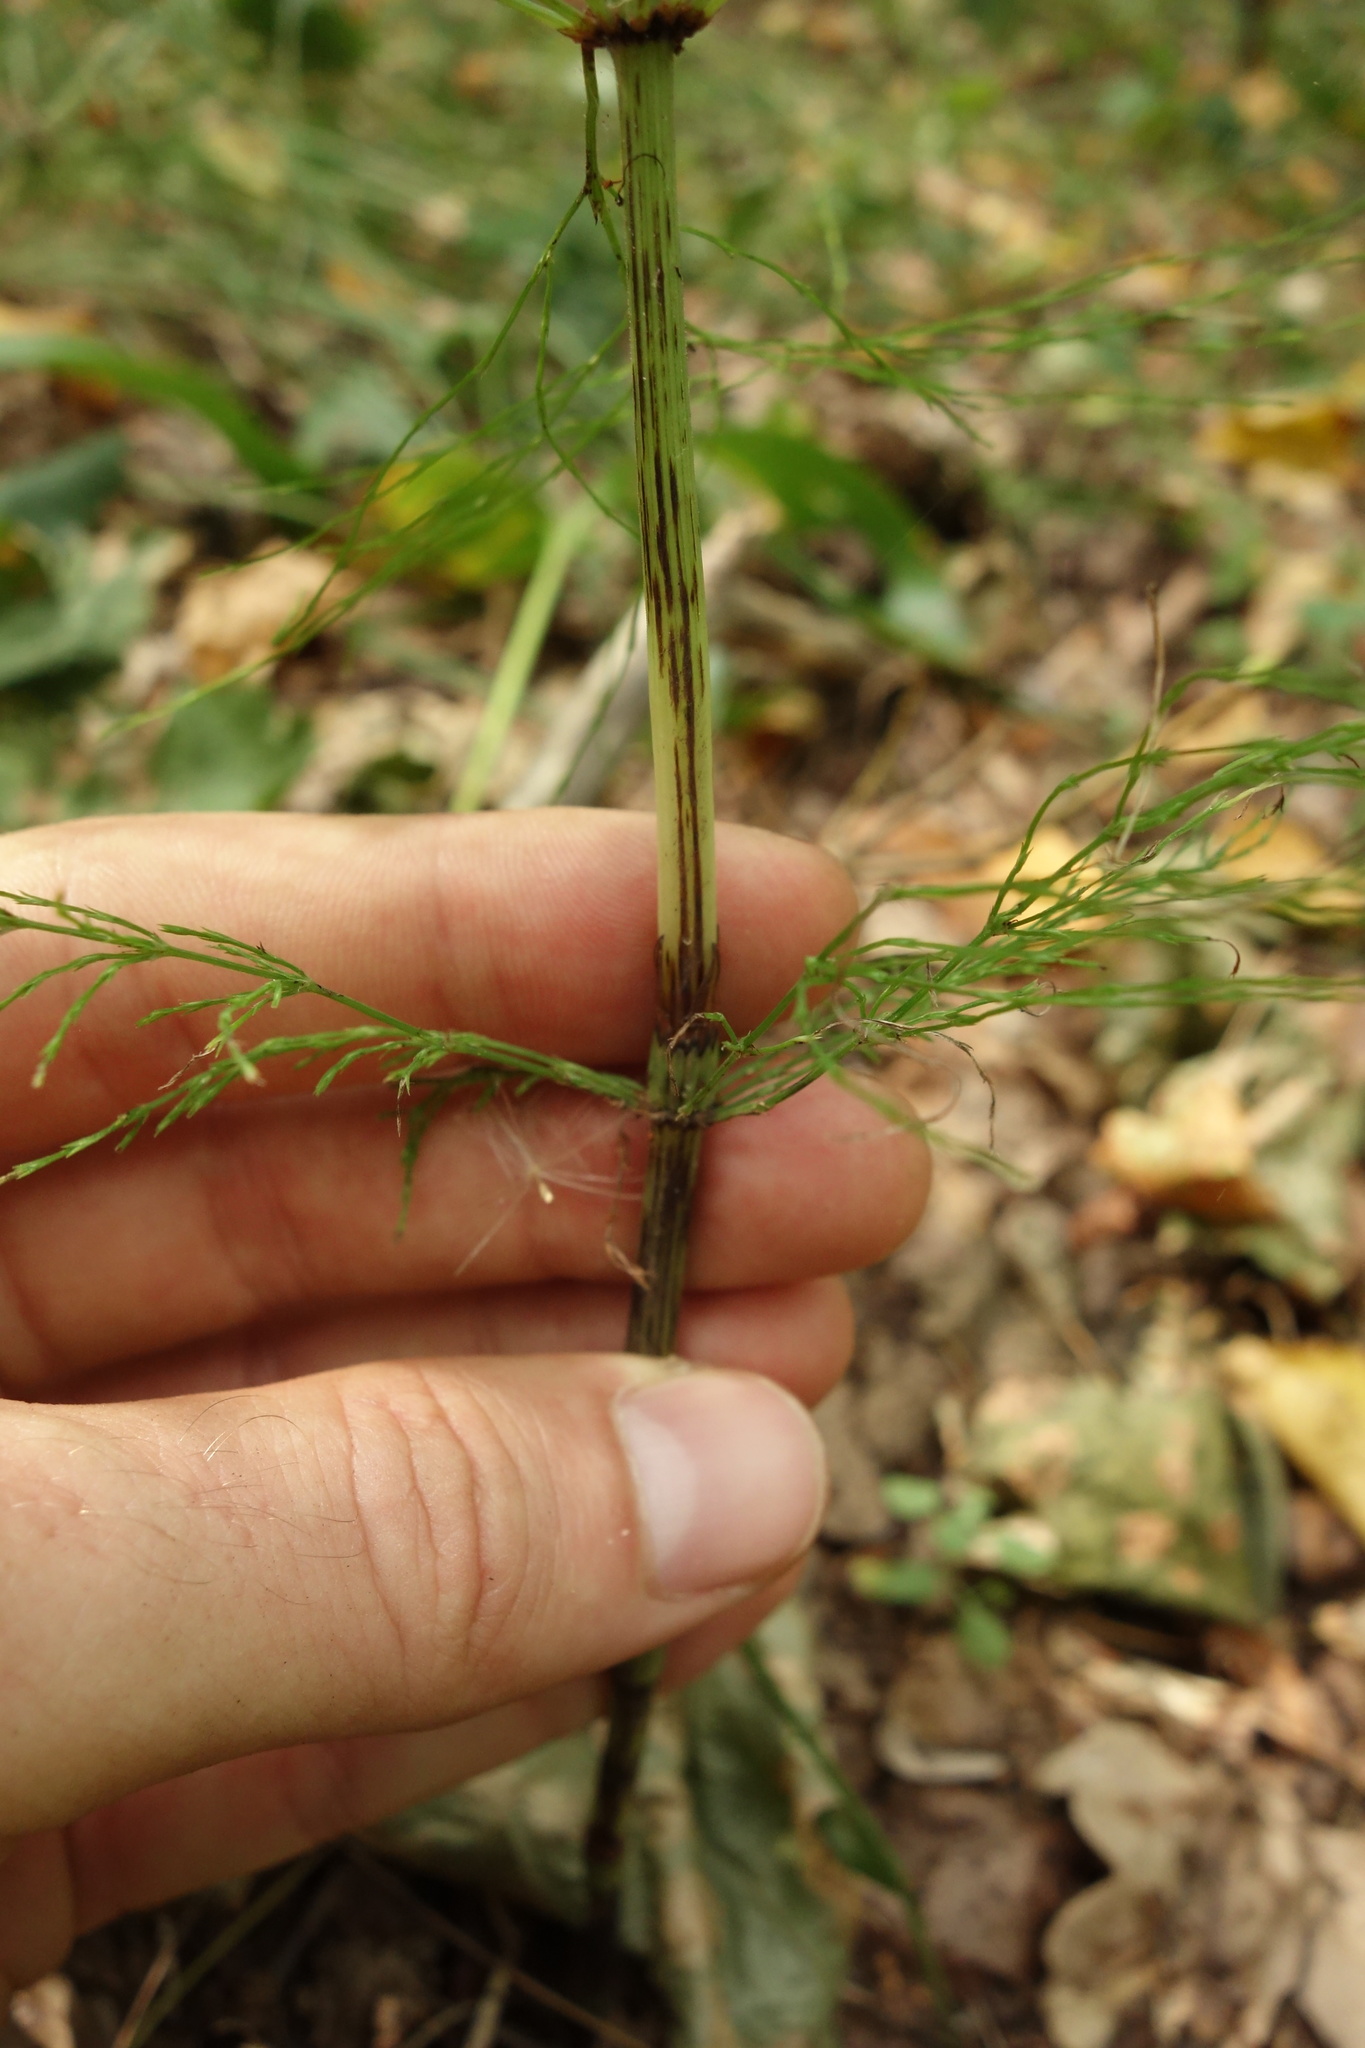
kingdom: Plantae
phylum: Tracheophyta
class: Polypodiopsida
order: Equisetales
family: Equisetaceae
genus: Equisetum
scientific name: Equisetum sylvaticum
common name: Wood horsetail
